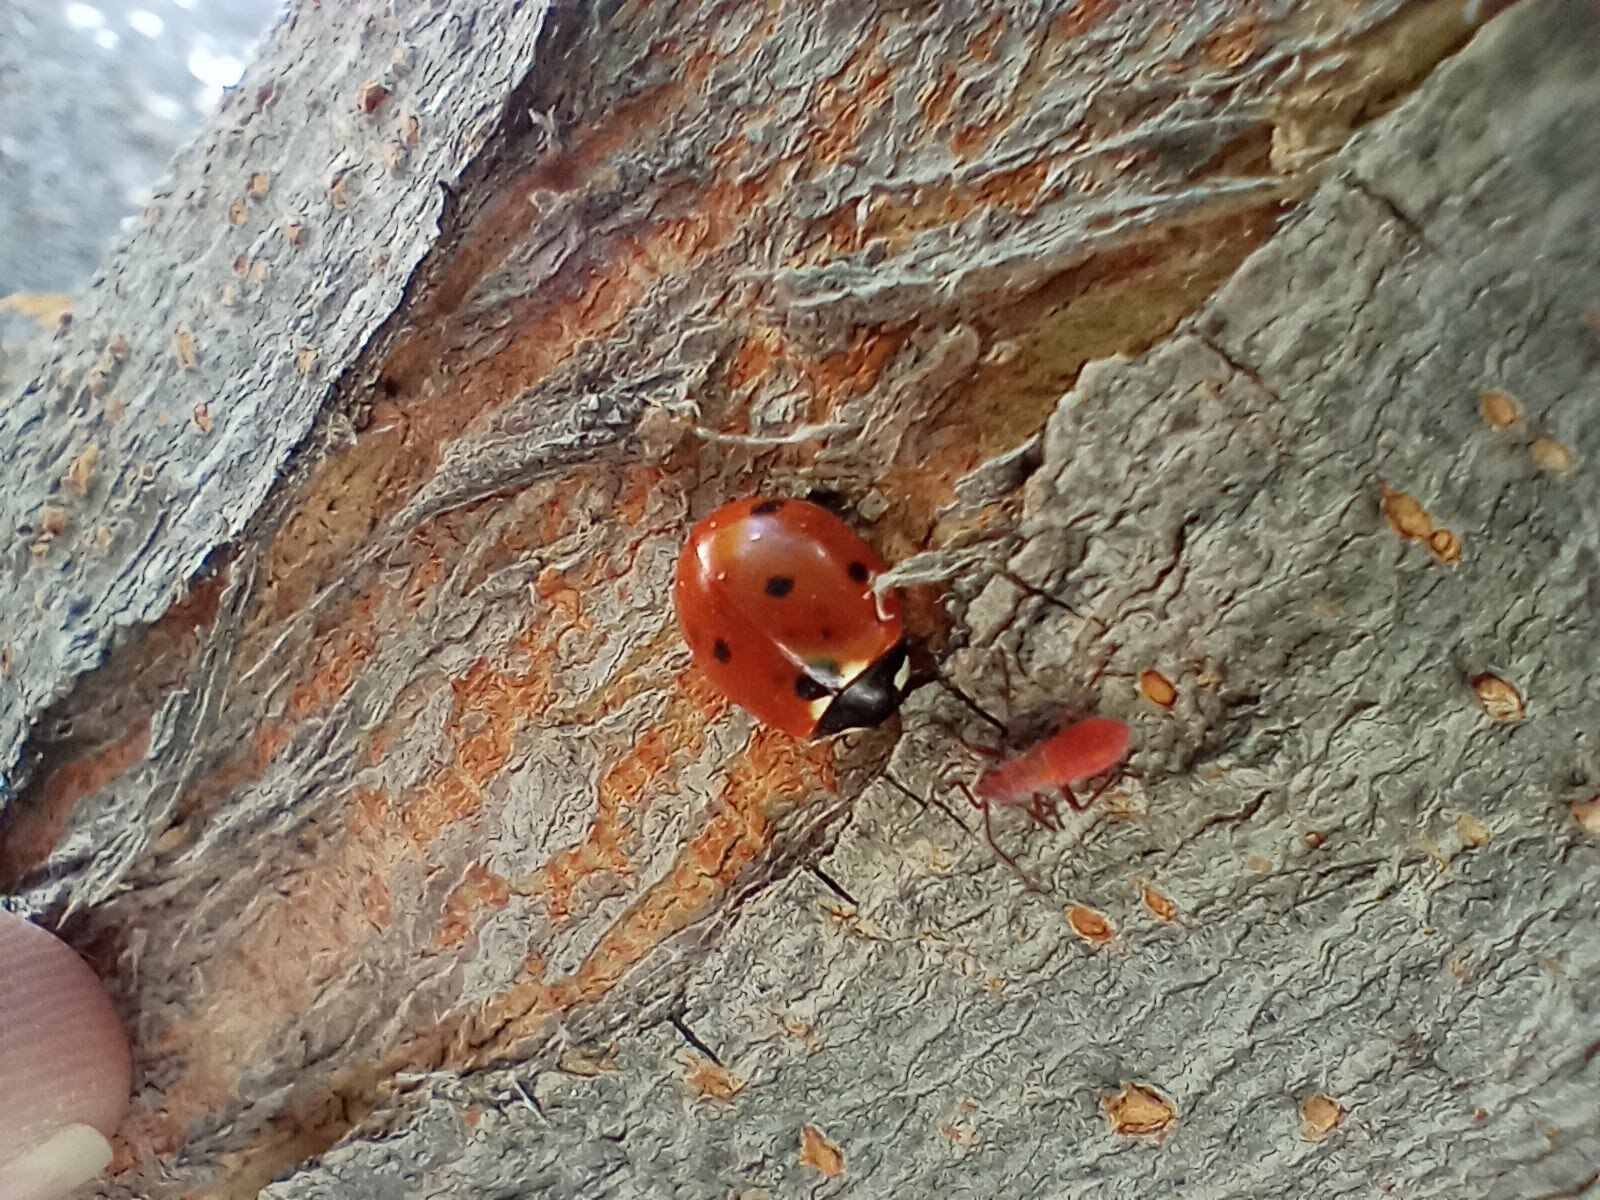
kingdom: Animalia
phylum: Arthropoda
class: Insecta
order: Coleoptera
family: Coccinellidae
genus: Coccinella
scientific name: Coccinella septempunctata
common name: Sevenspotted lady beetle
